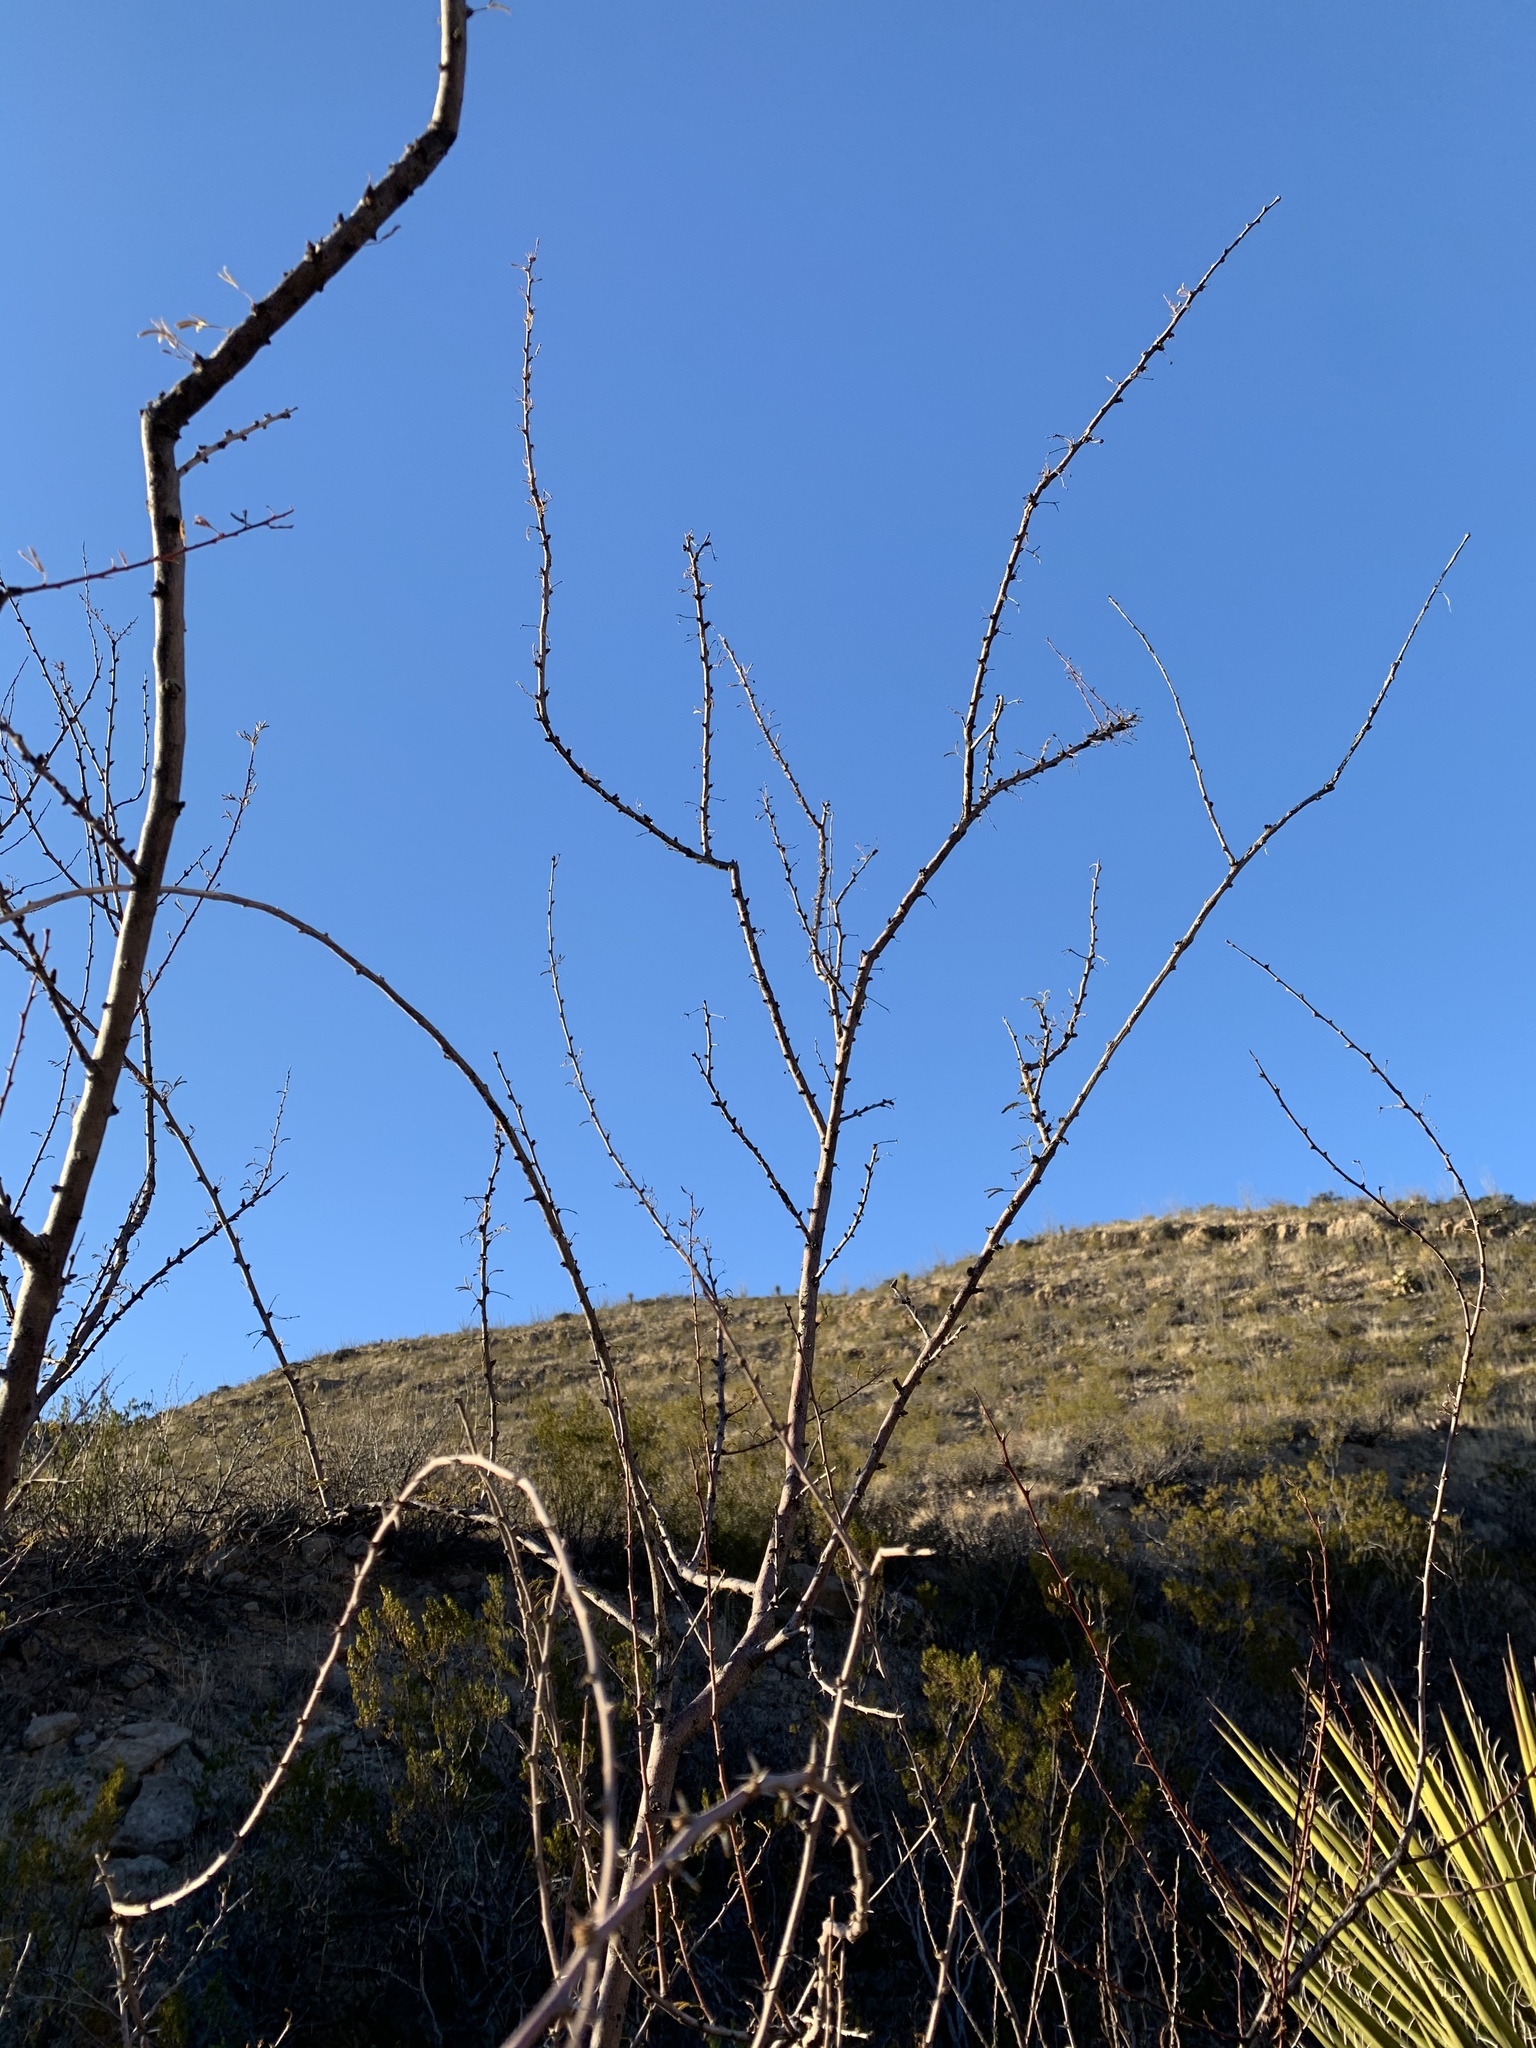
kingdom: Plantae
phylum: Tracheophyta
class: Magnoliopsida
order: Fabales
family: Fabaceae
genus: Vachellia
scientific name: Vachellia constricta
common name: Mescat acacia
